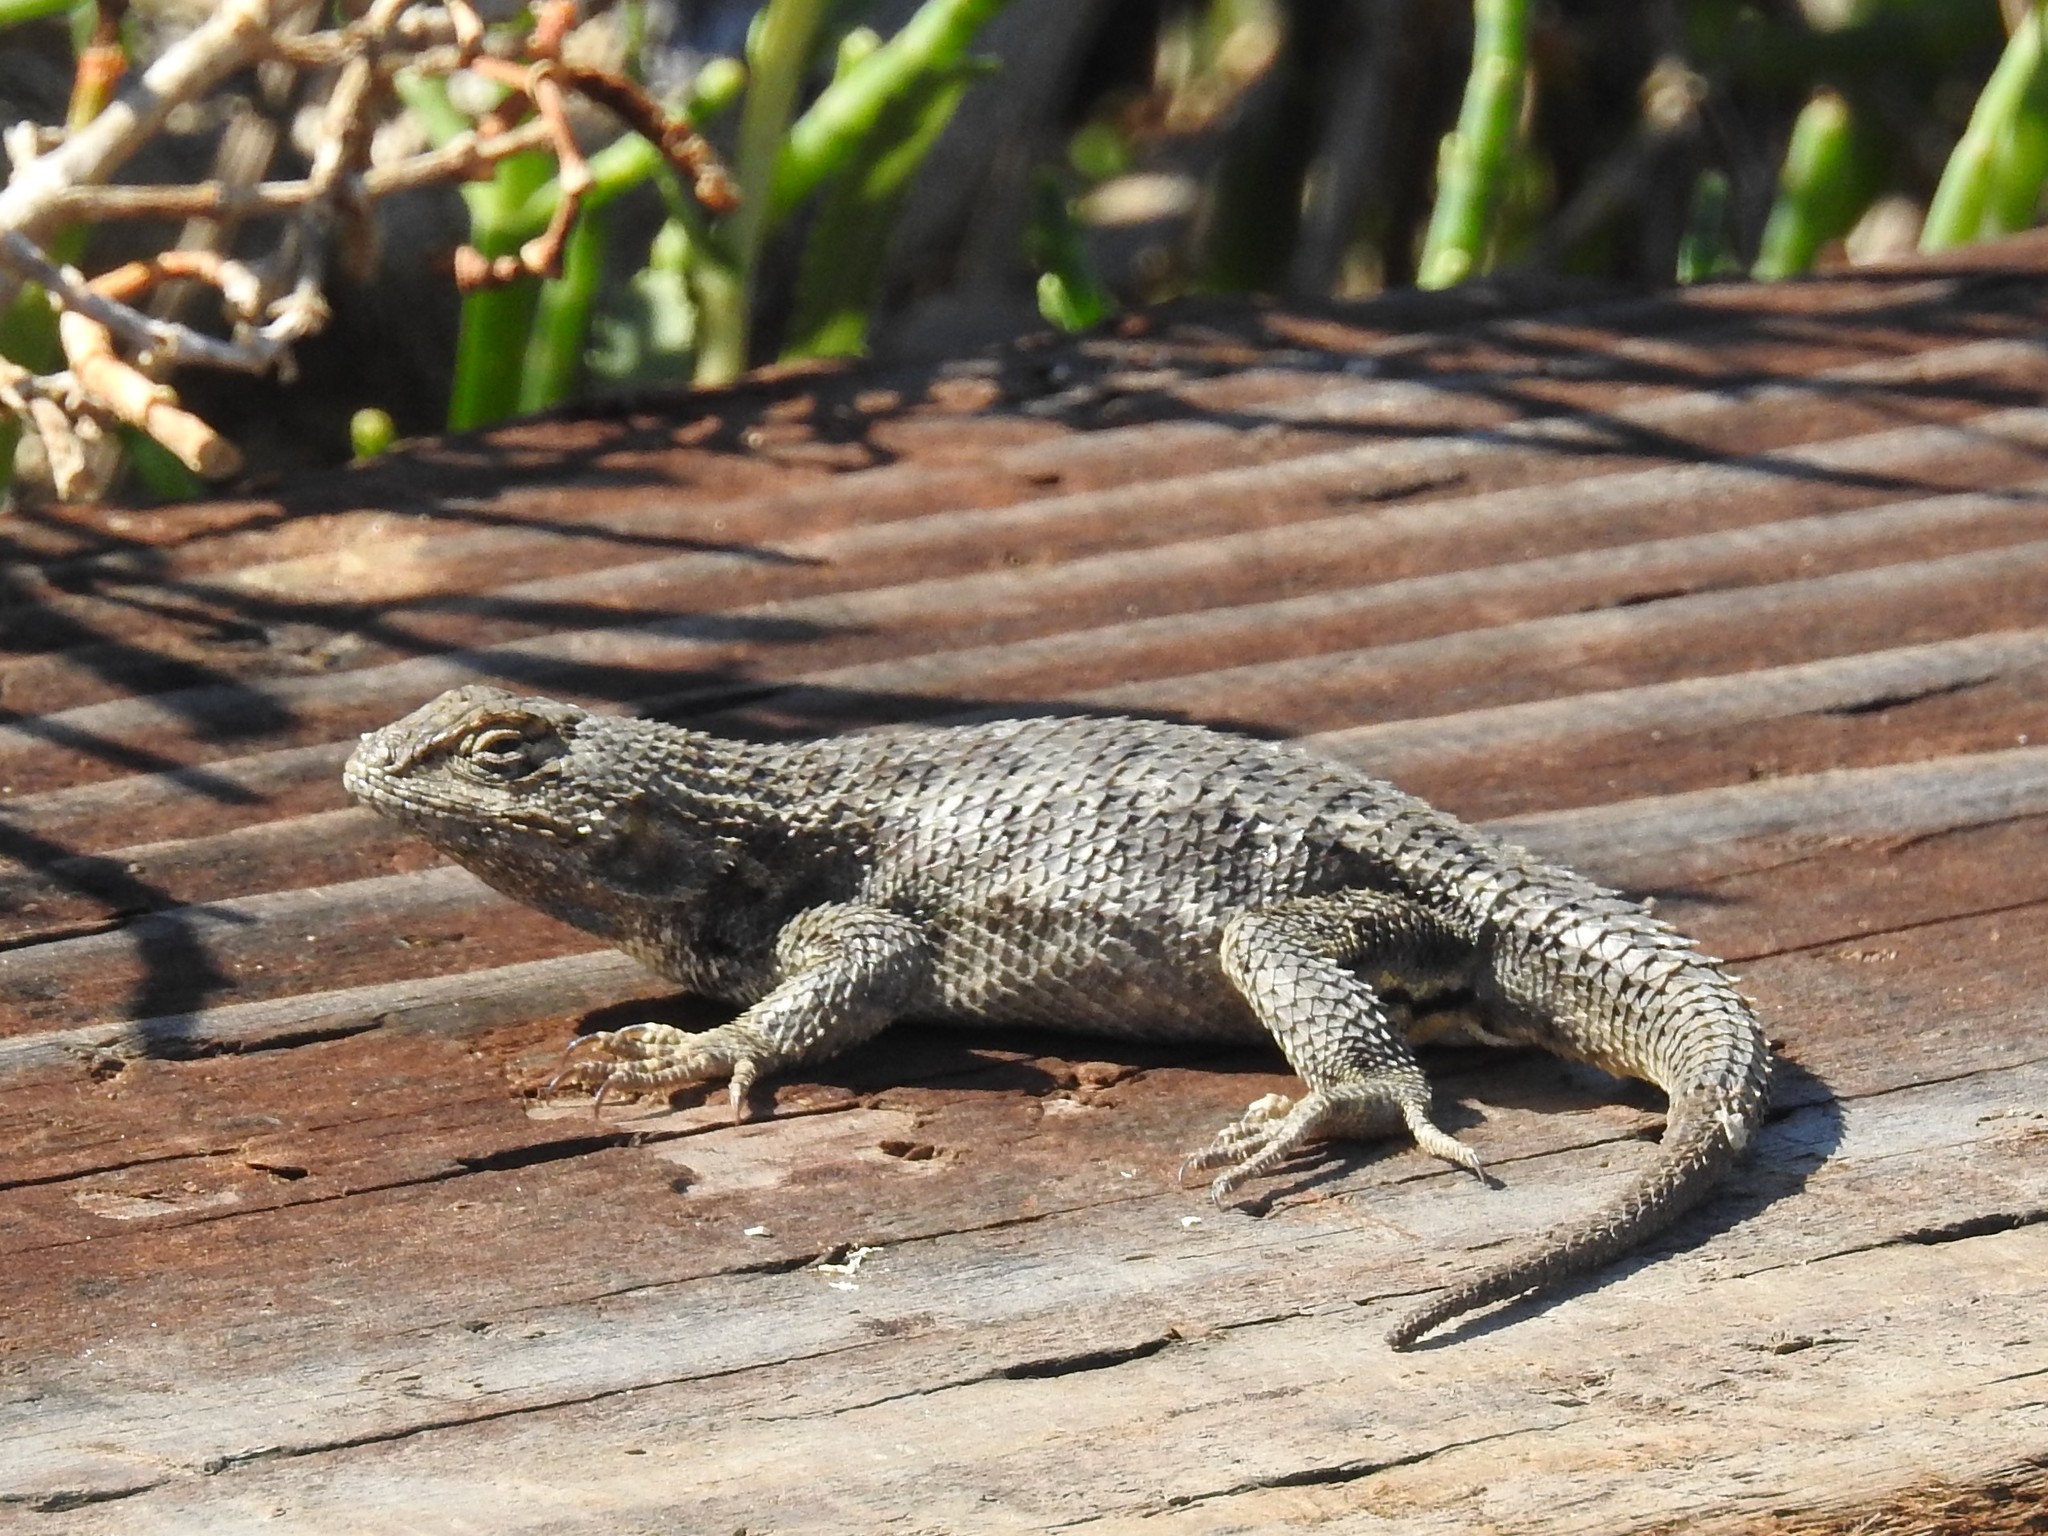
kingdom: Animalia
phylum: Chordata
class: Squamata
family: Phrynosomatidae
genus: Sceloporus
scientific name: Sceloporus occidentalis
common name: Western fence lizard
